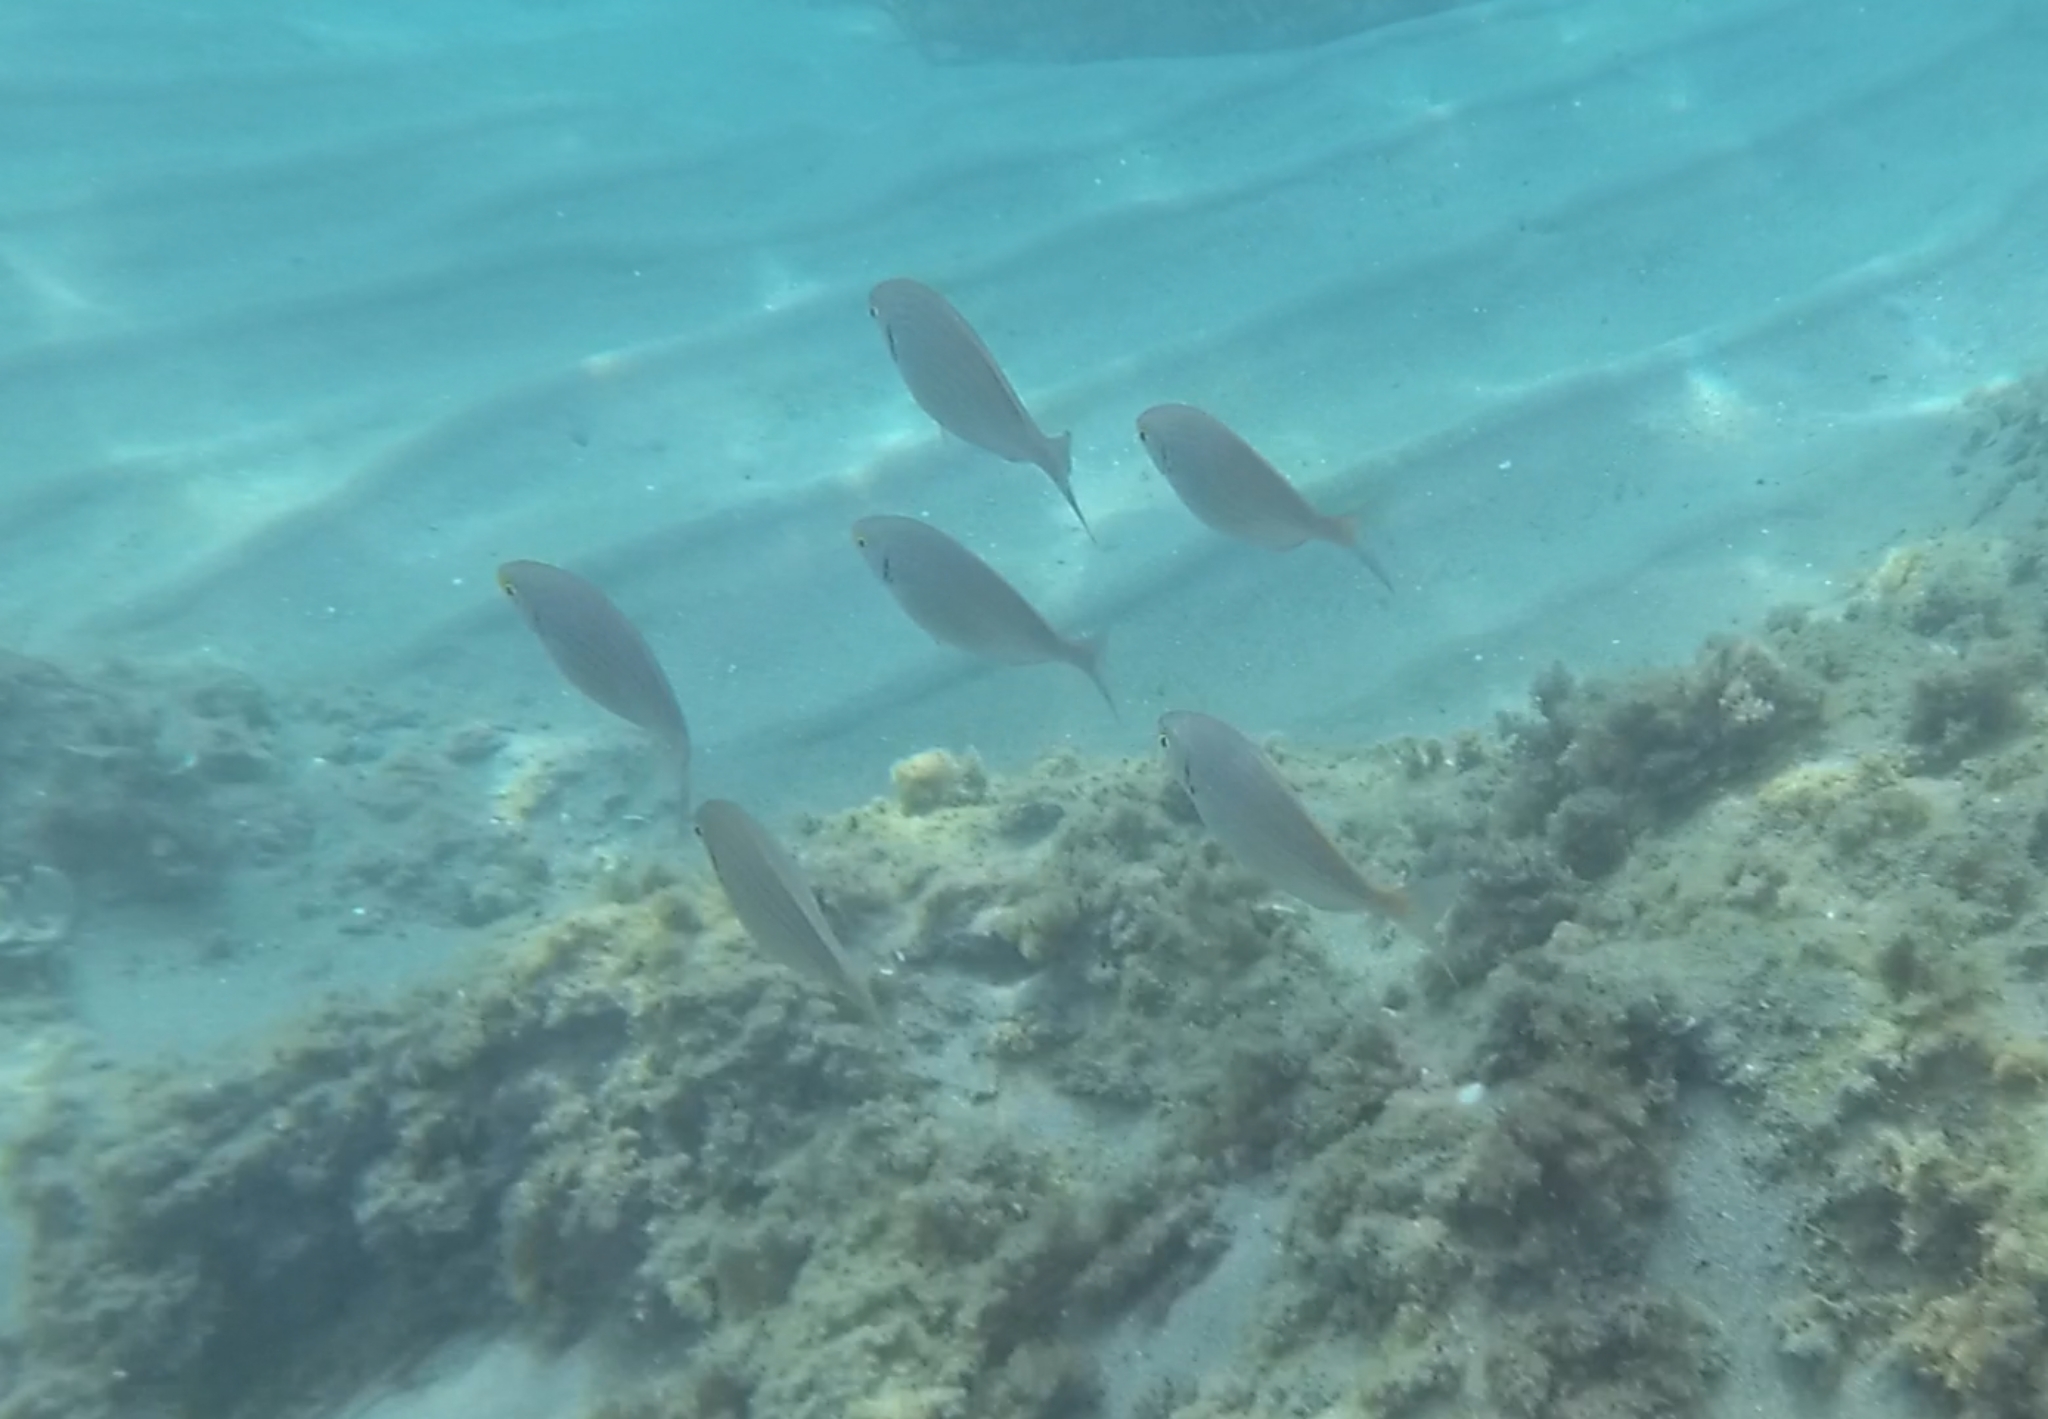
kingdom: Animalia
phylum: Chordata
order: Perciformes
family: Sparidae
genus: Sarpa
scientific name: Sarpa salpa
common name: Salema
